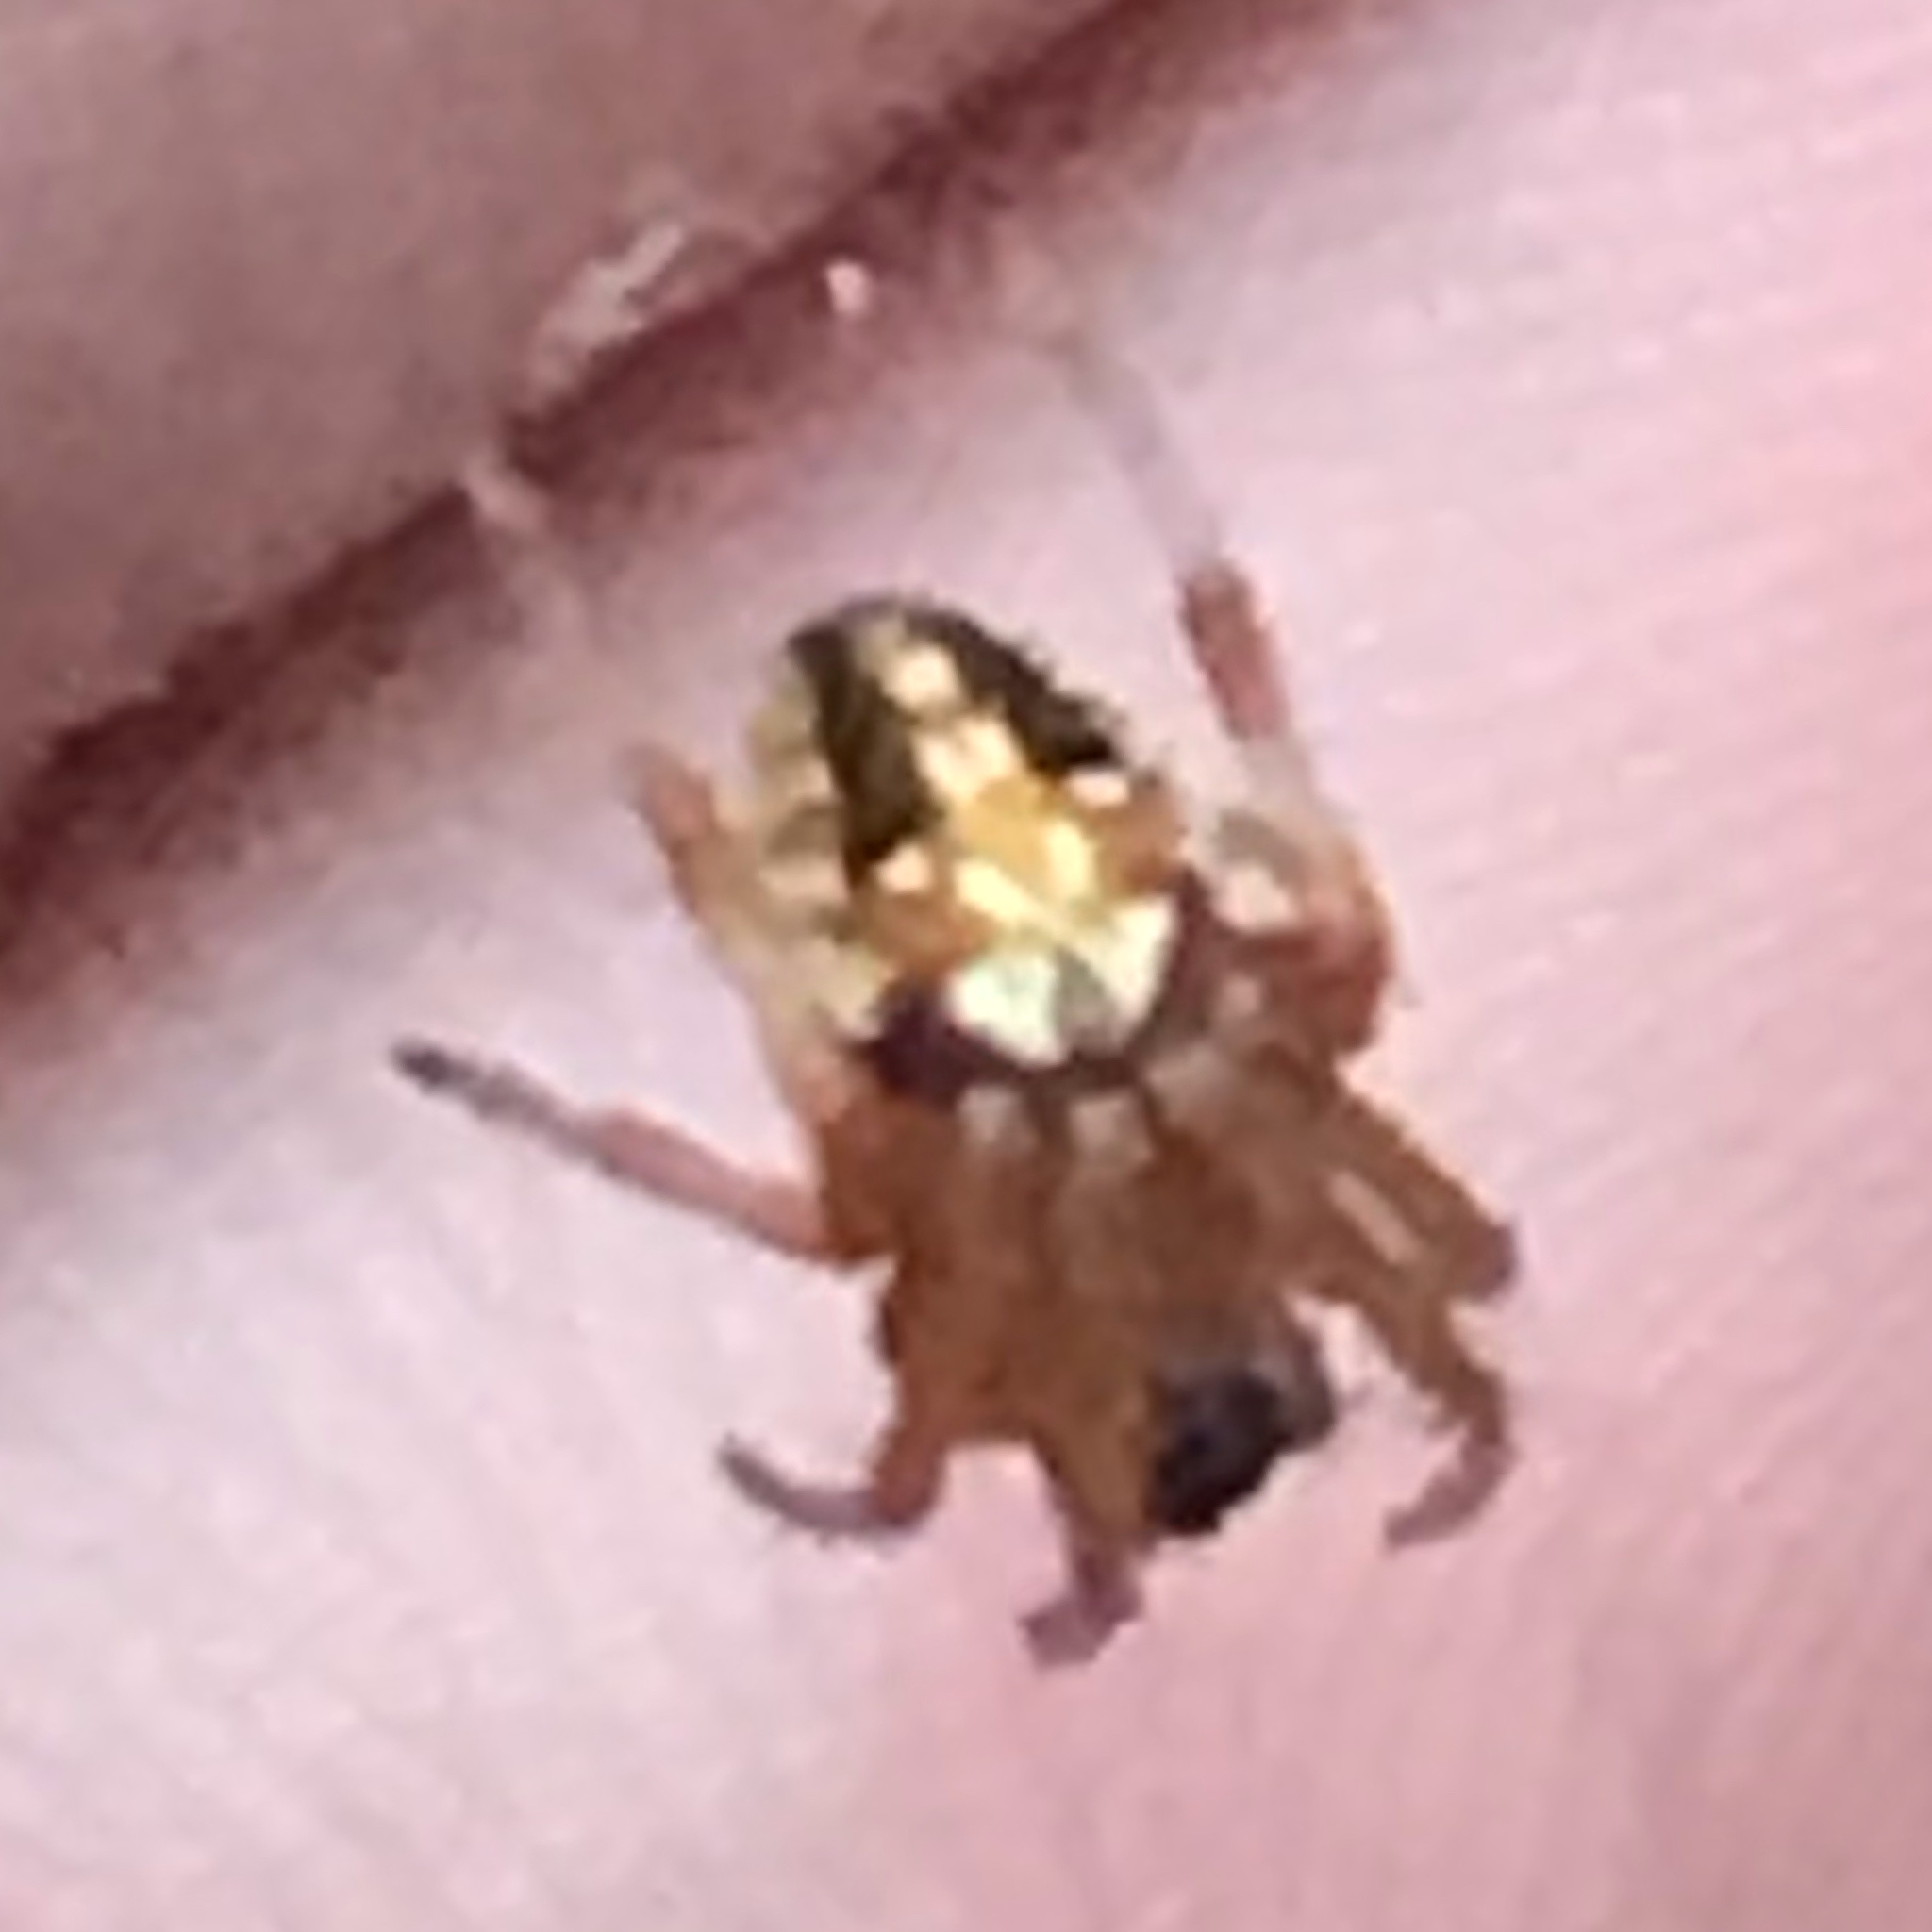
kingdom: Animalia
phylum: Arthropoda
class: Arachnida
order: Araneae
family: Araneidae
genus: Neoscona
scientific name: Neoscona arabesca
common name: Orb weavers
